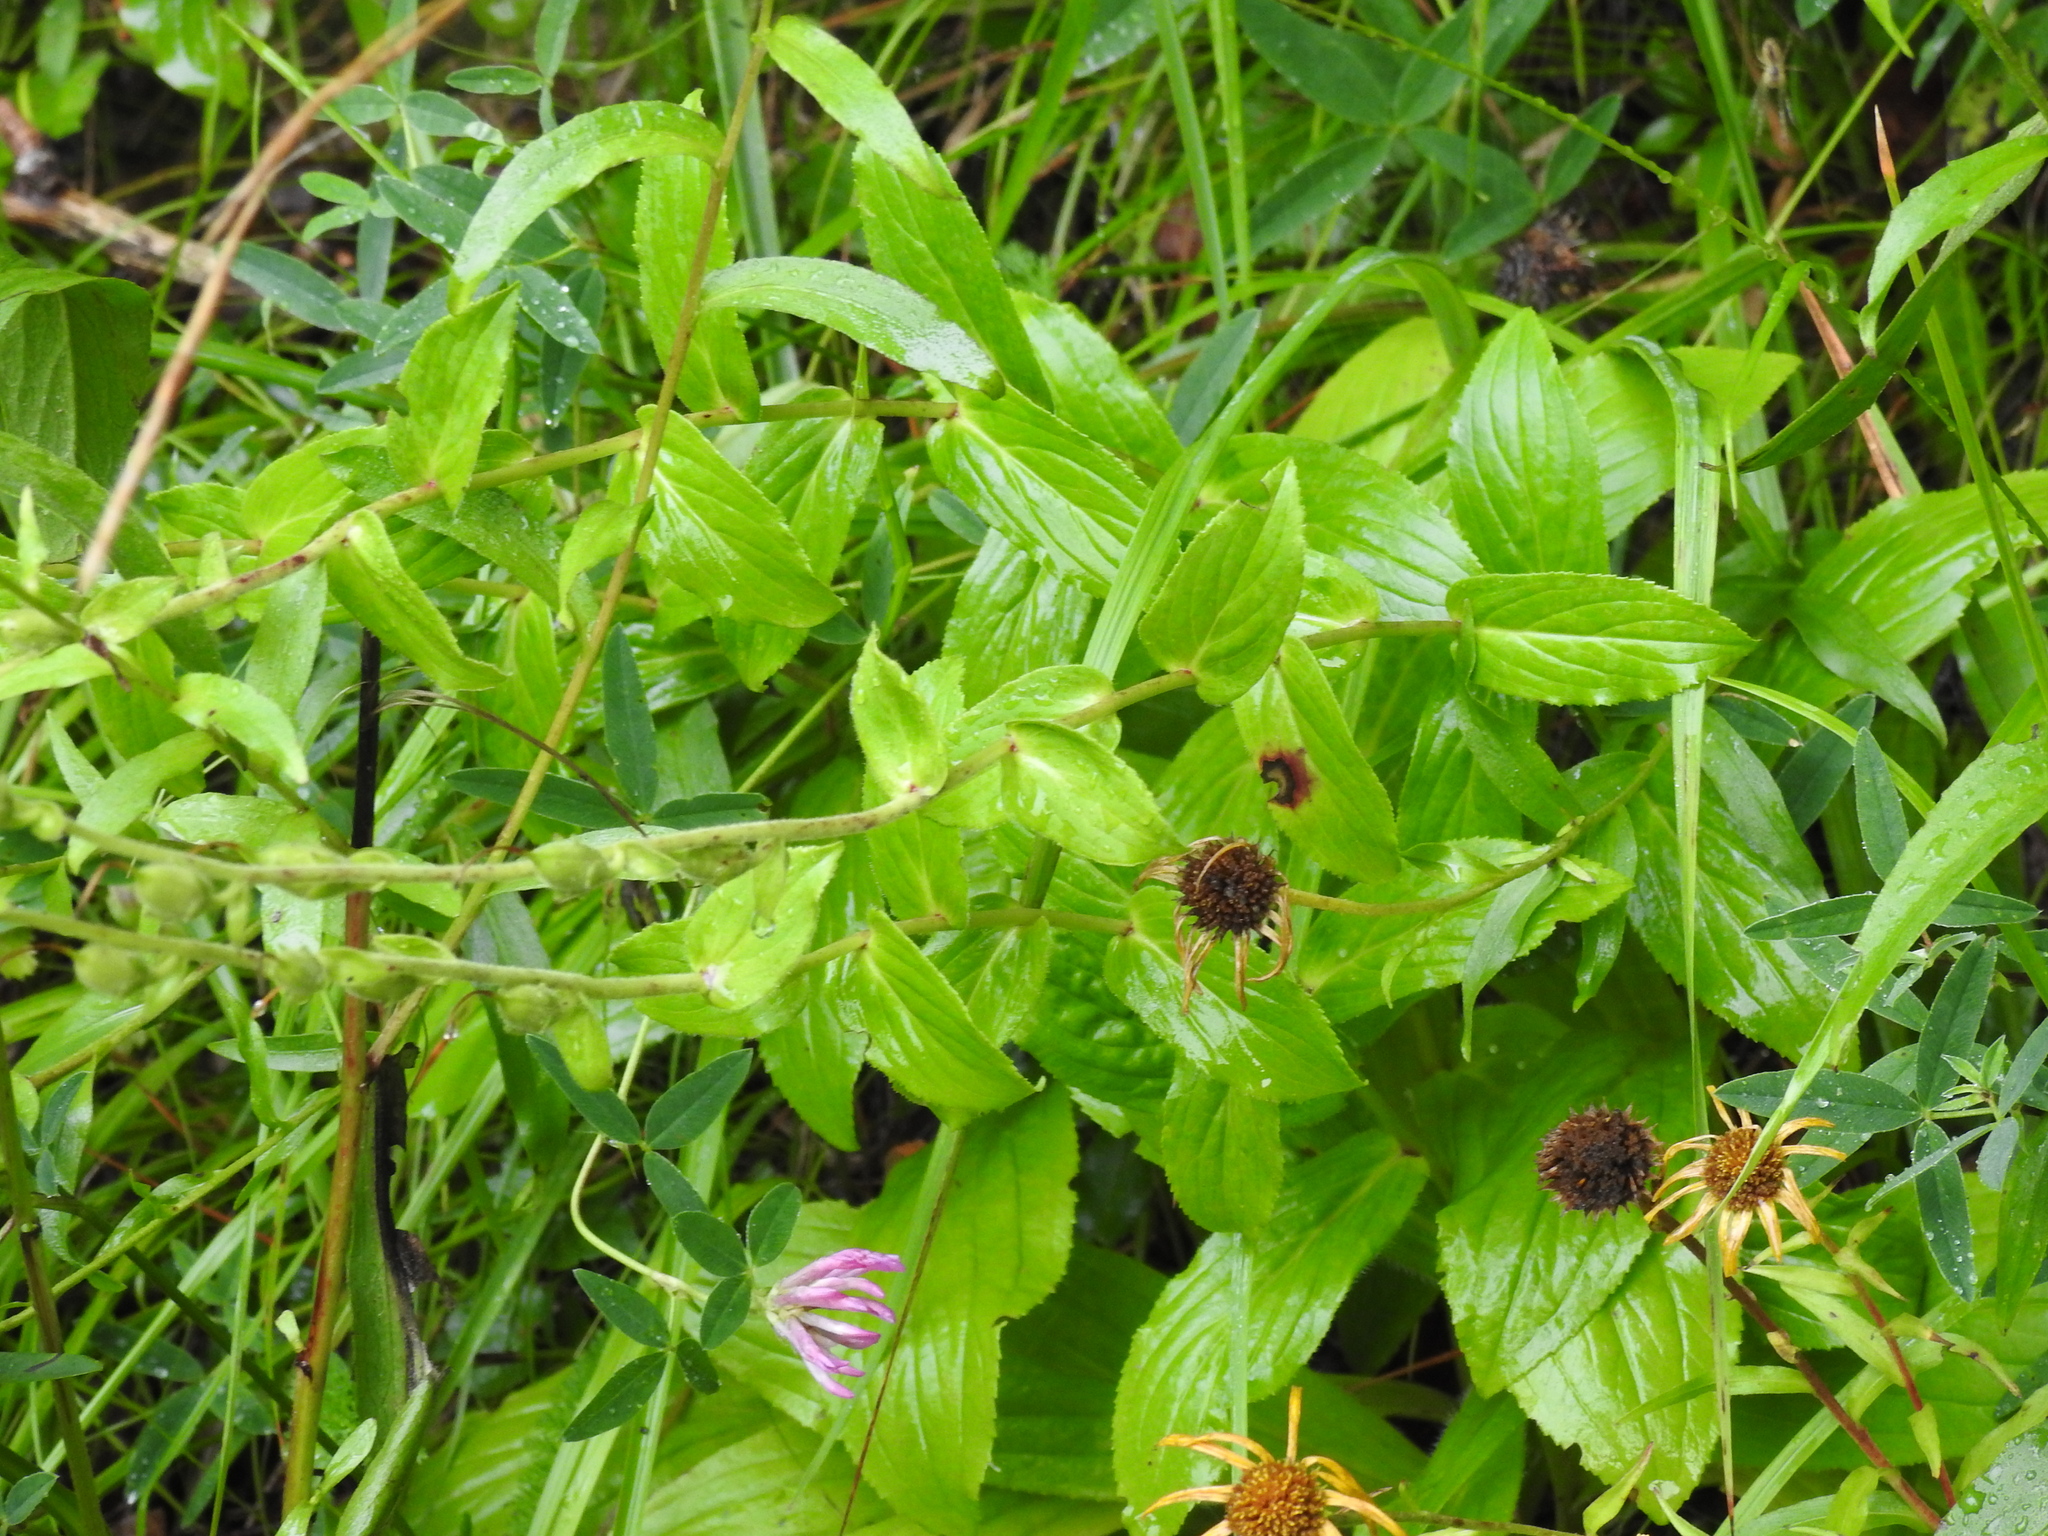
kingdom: Plantae
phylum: Tracheophyta
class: Magnoliopsida
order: Lamiales
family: Plantaginaceae
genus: Digitalis
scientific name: Digitalis grandiflora
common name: Yellow foxglove
